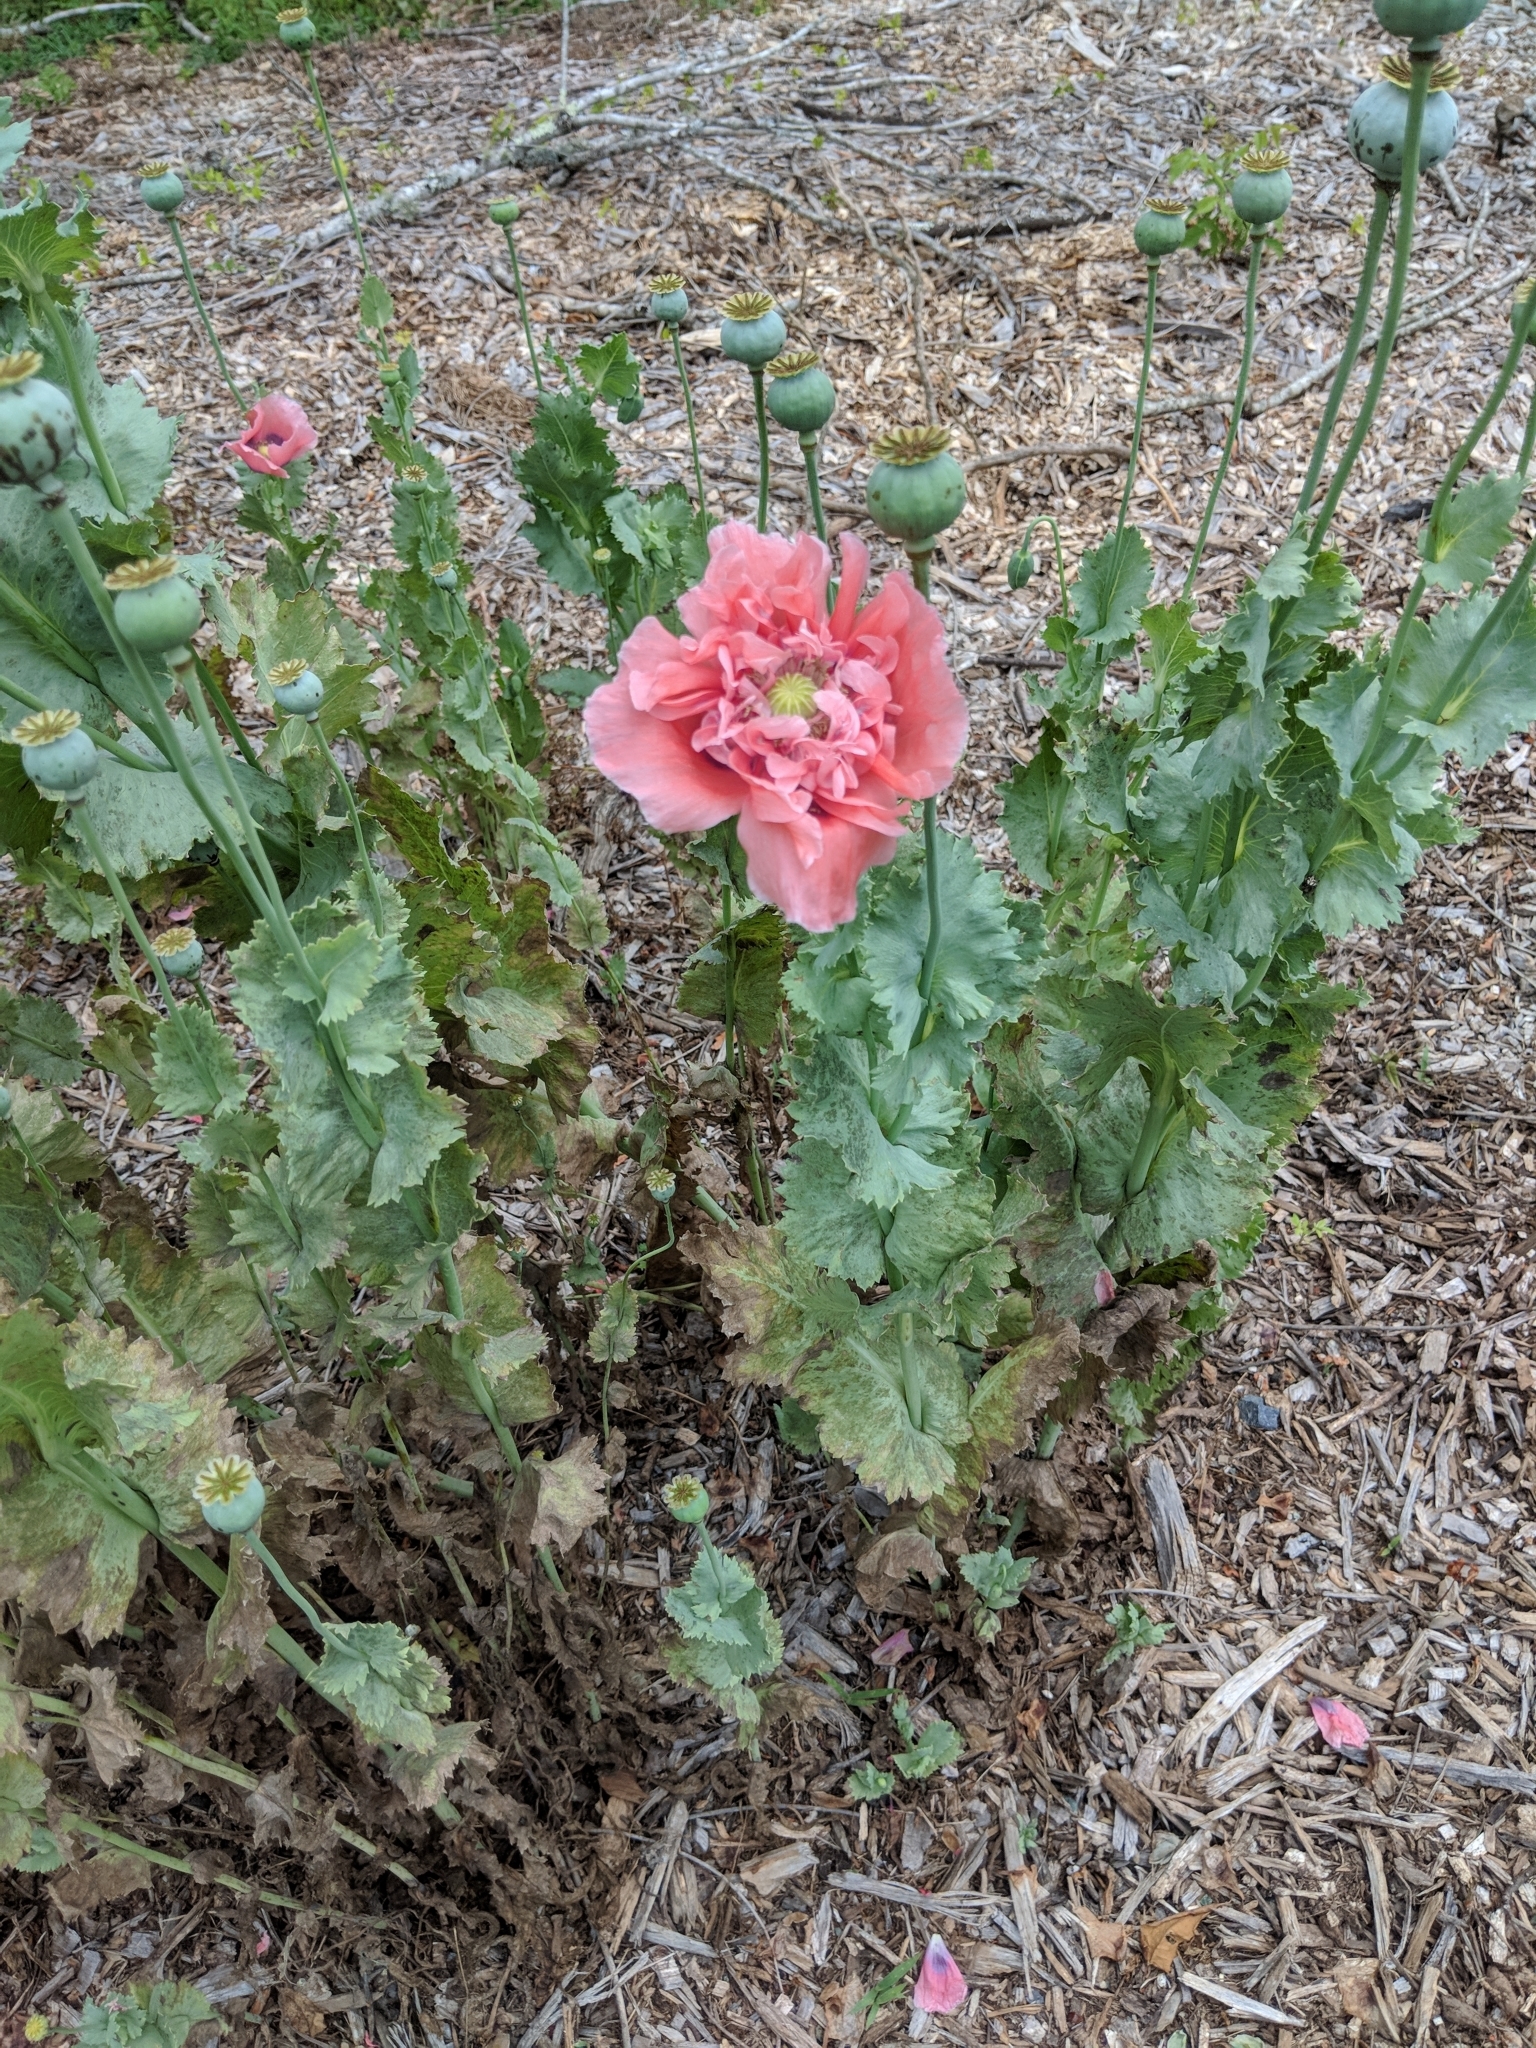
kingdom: Plantae
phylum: Tracheophyta
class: Magnoliopsida
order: Ranunculales
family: Papaveraceae
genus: Papaver
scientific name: Papaver somniferum
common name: Opium poppy
